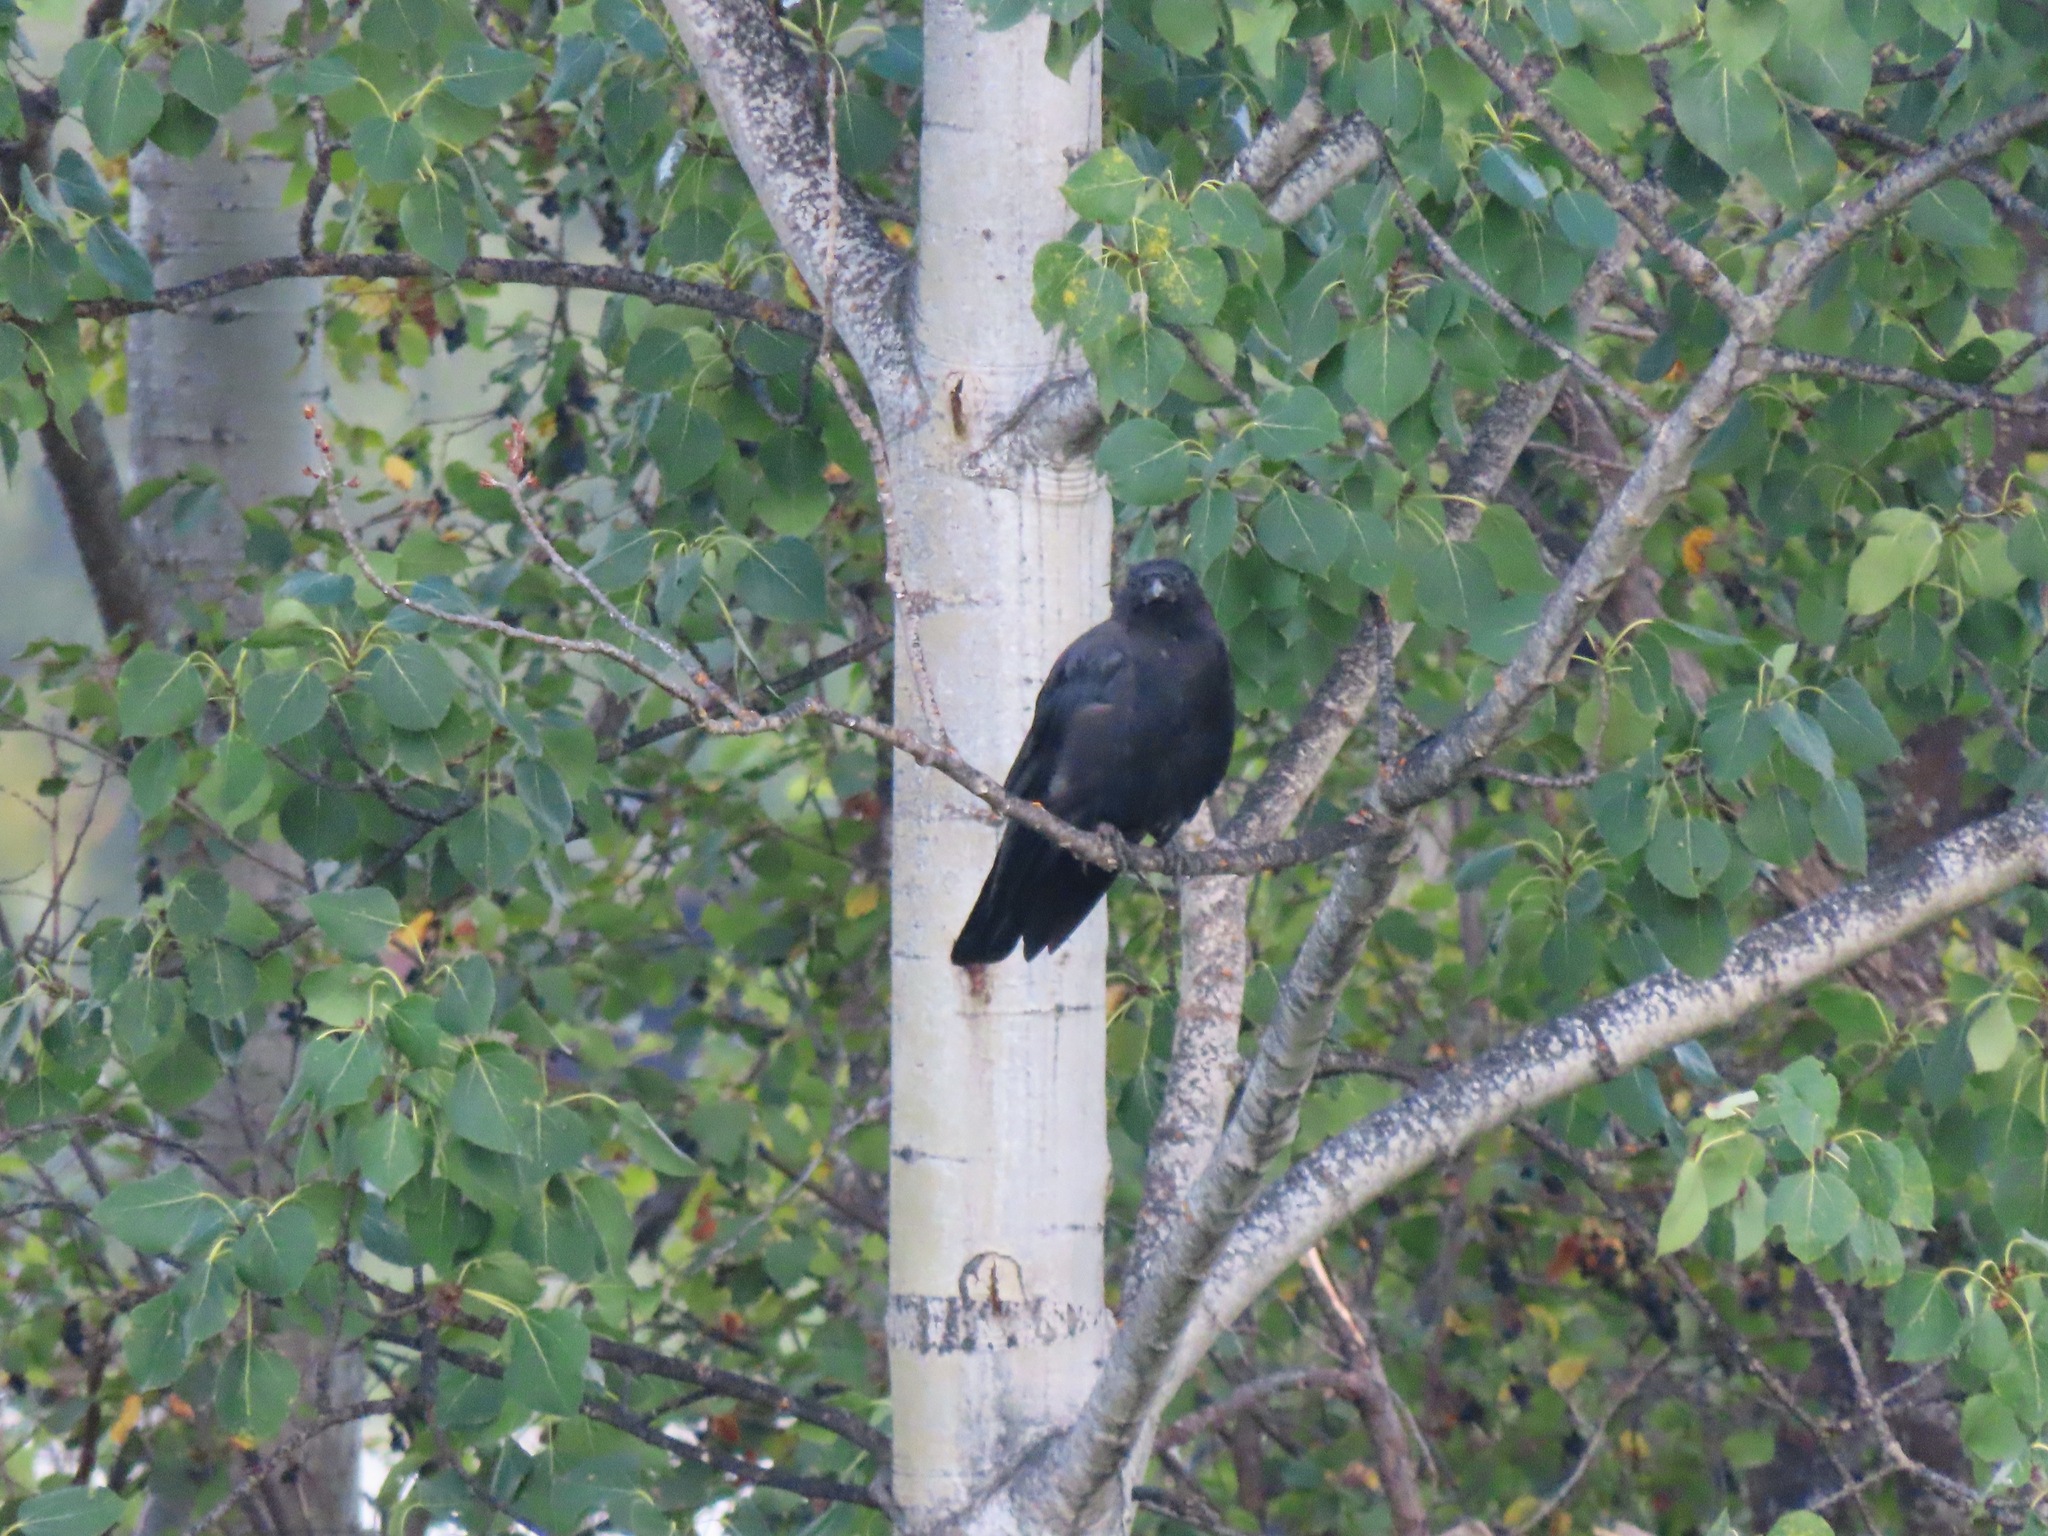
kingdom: Animalia
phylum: Chordata
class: Aves
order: Passeriformes
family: Corvidae
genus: Corvus
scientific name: Corvus brachyrhynchos
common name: American crow
